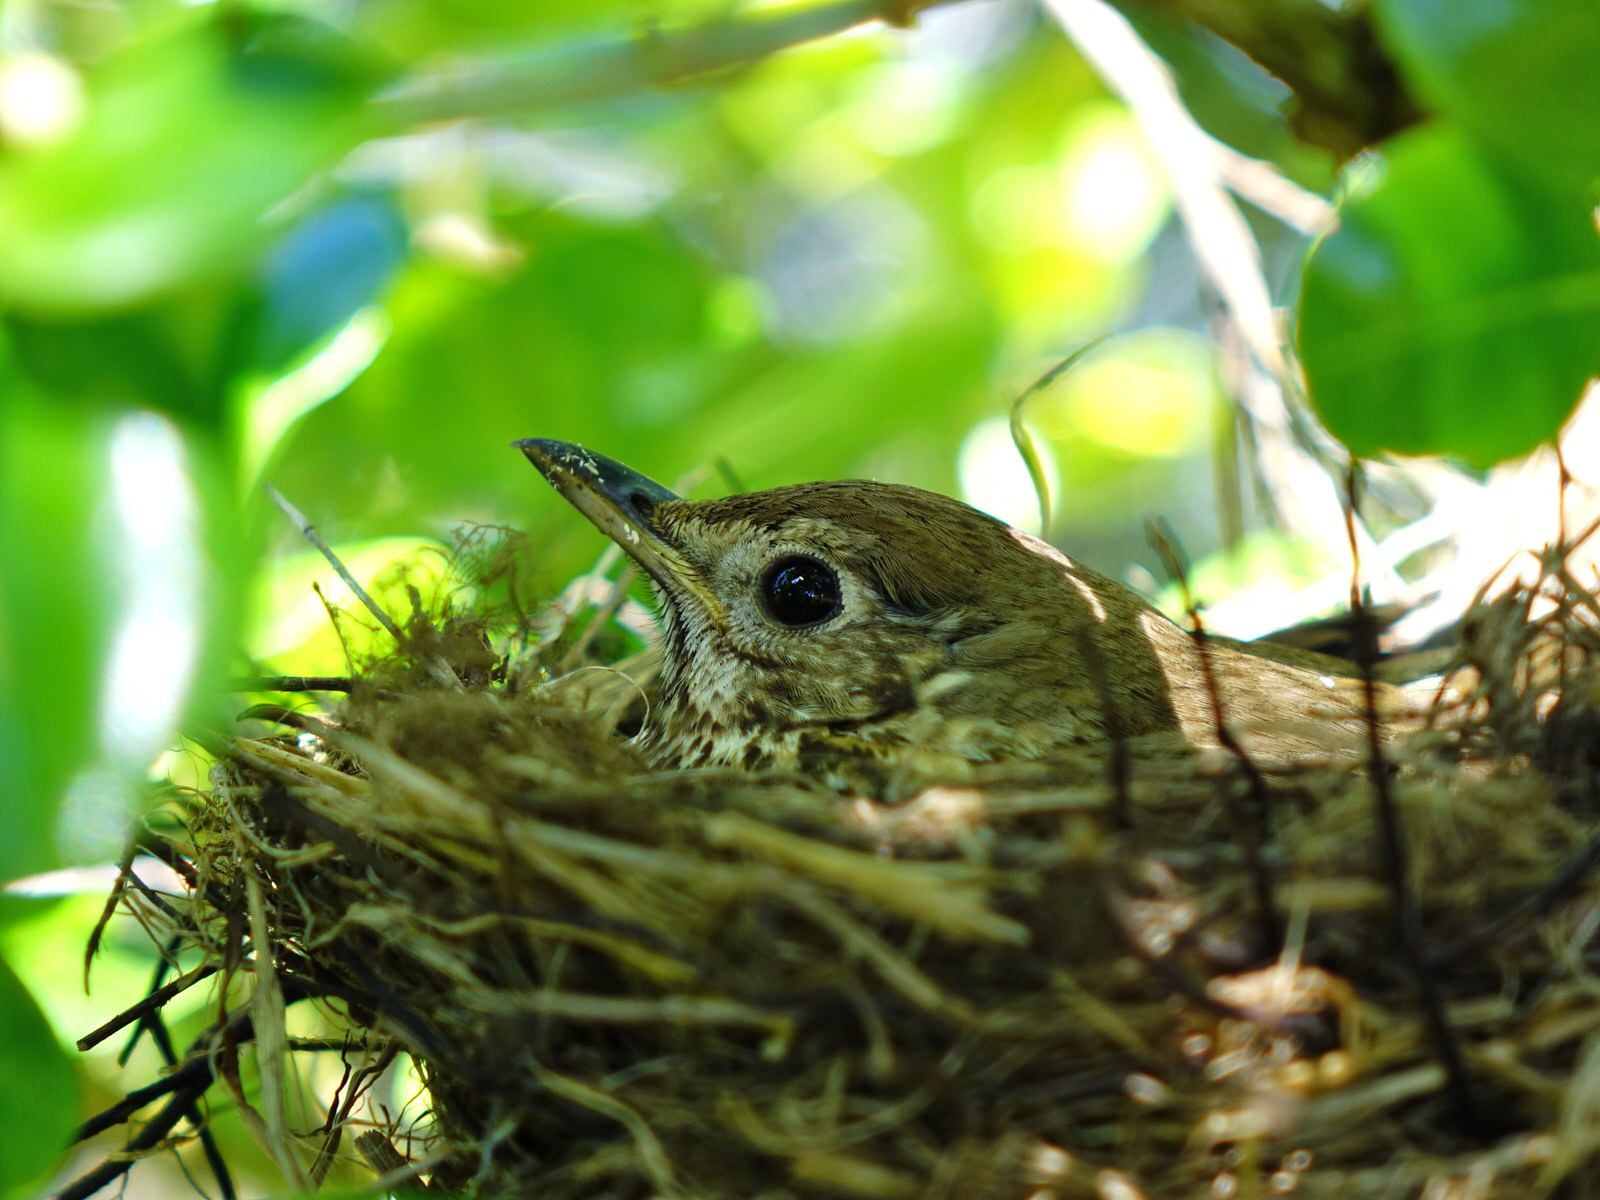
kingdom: Animalia
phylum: Chordata
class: Aves
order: Passeriformes
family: Turdidae
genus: Turdus
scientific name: Turdus philomelos
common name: Song thrush
